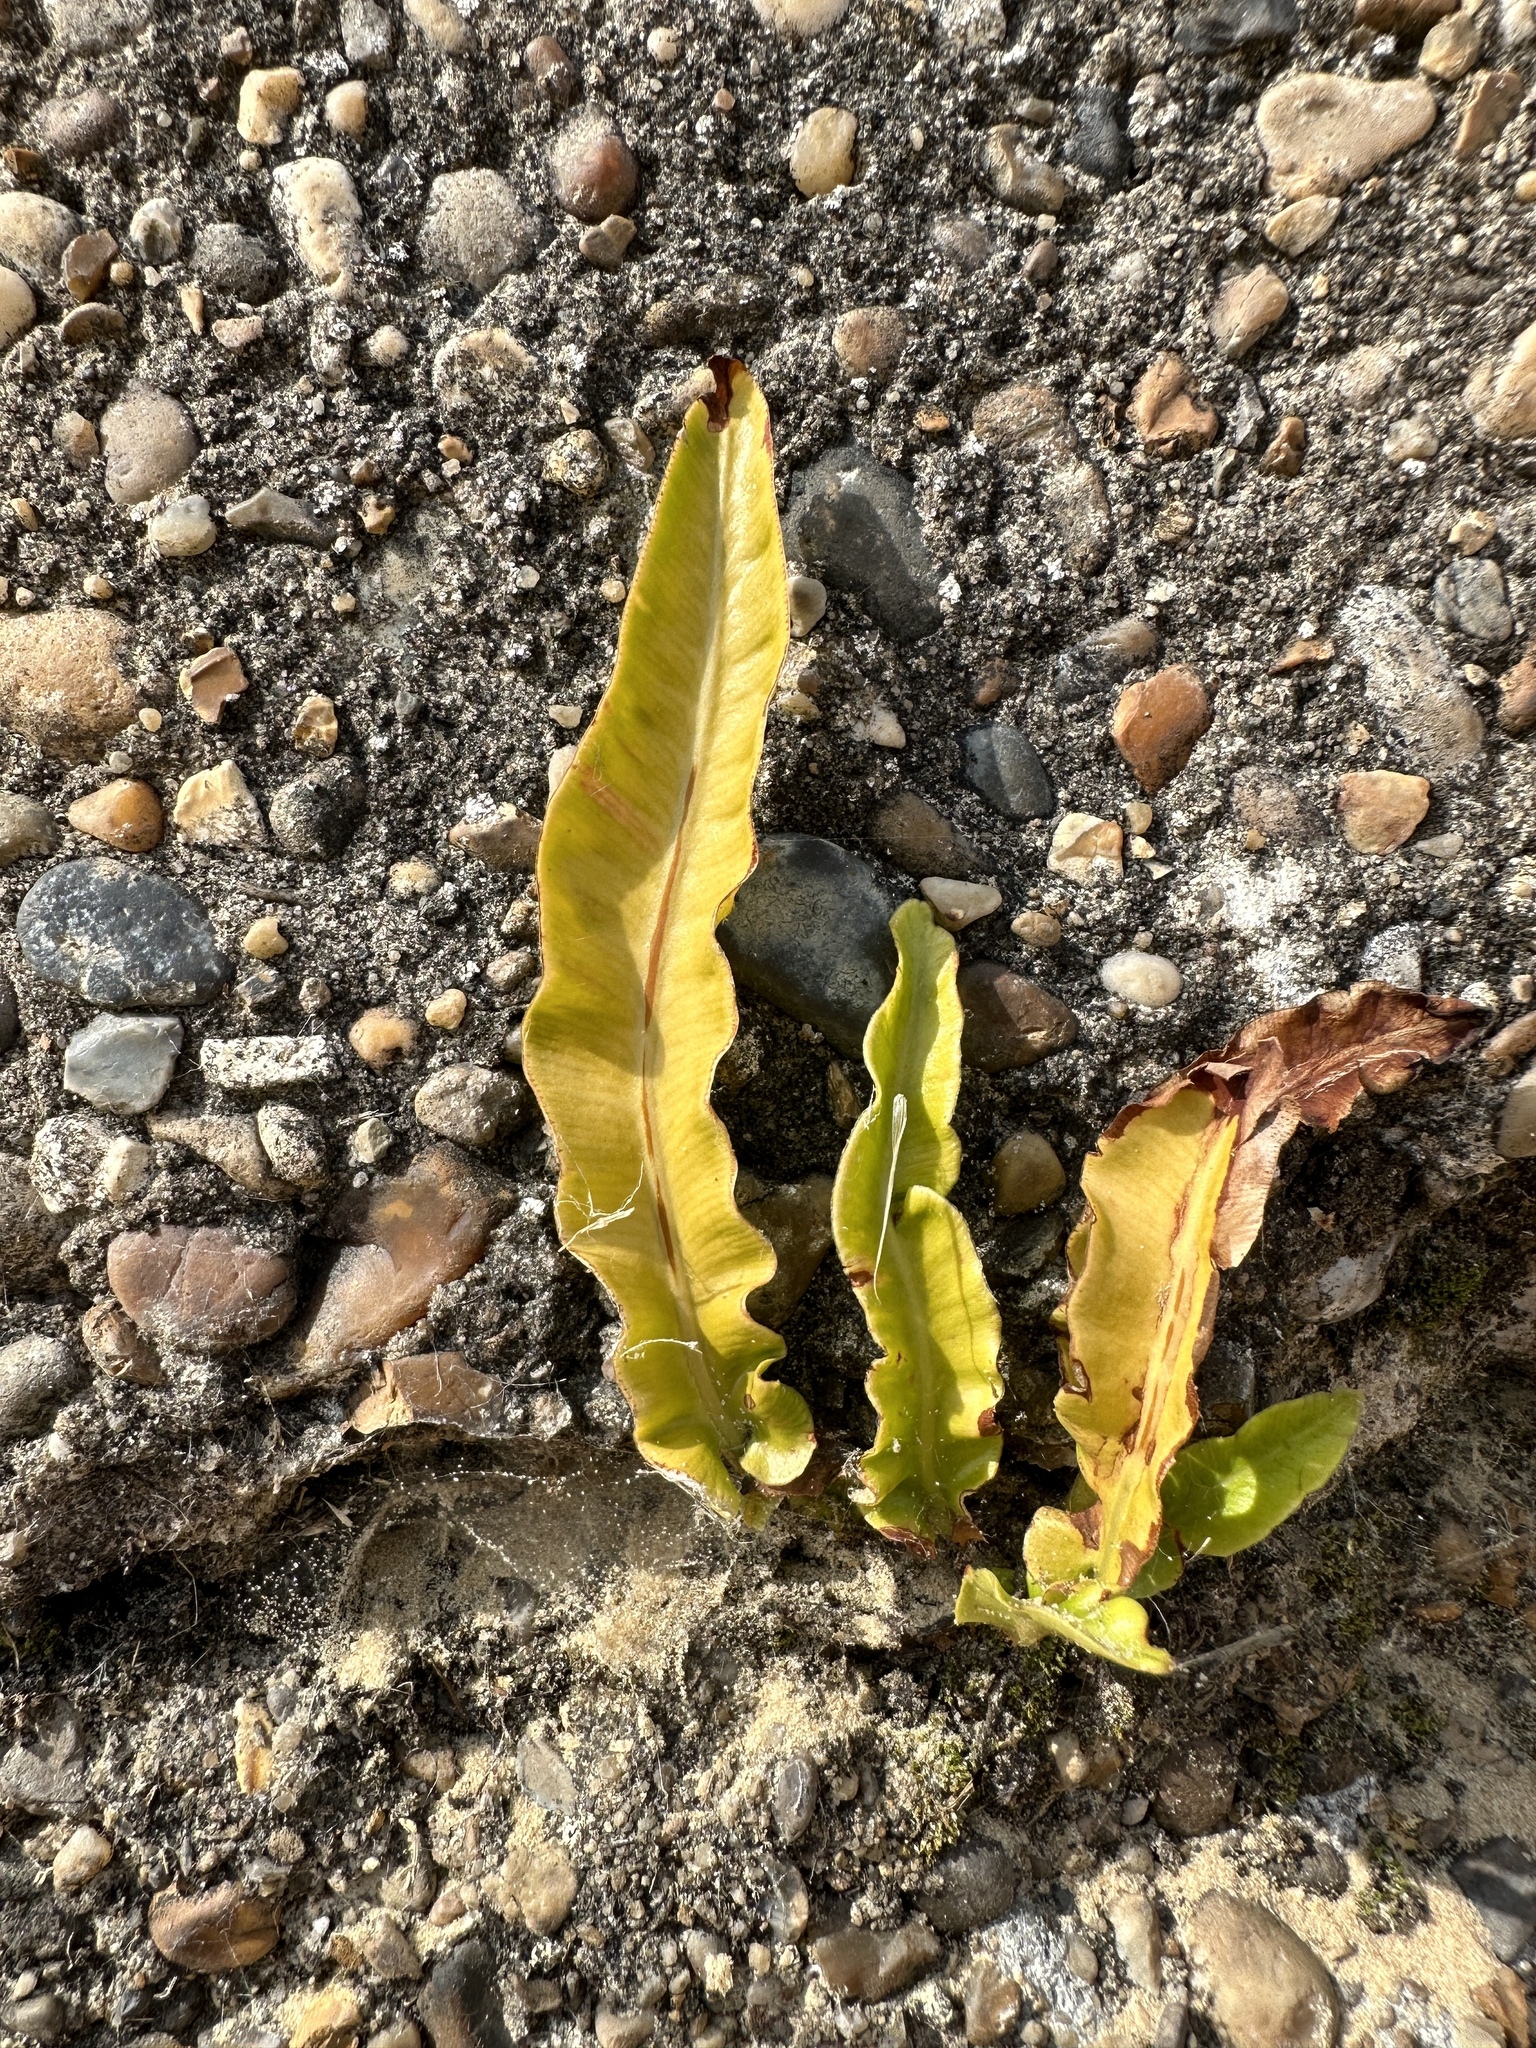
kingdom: Plantae
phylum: Tracheophyta
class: Polypodiopsida
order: Polypodiales
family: Aspleniaceae
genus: Asplenium
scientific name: Asplenium scolopendrium
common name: Hart's-tongue fern
